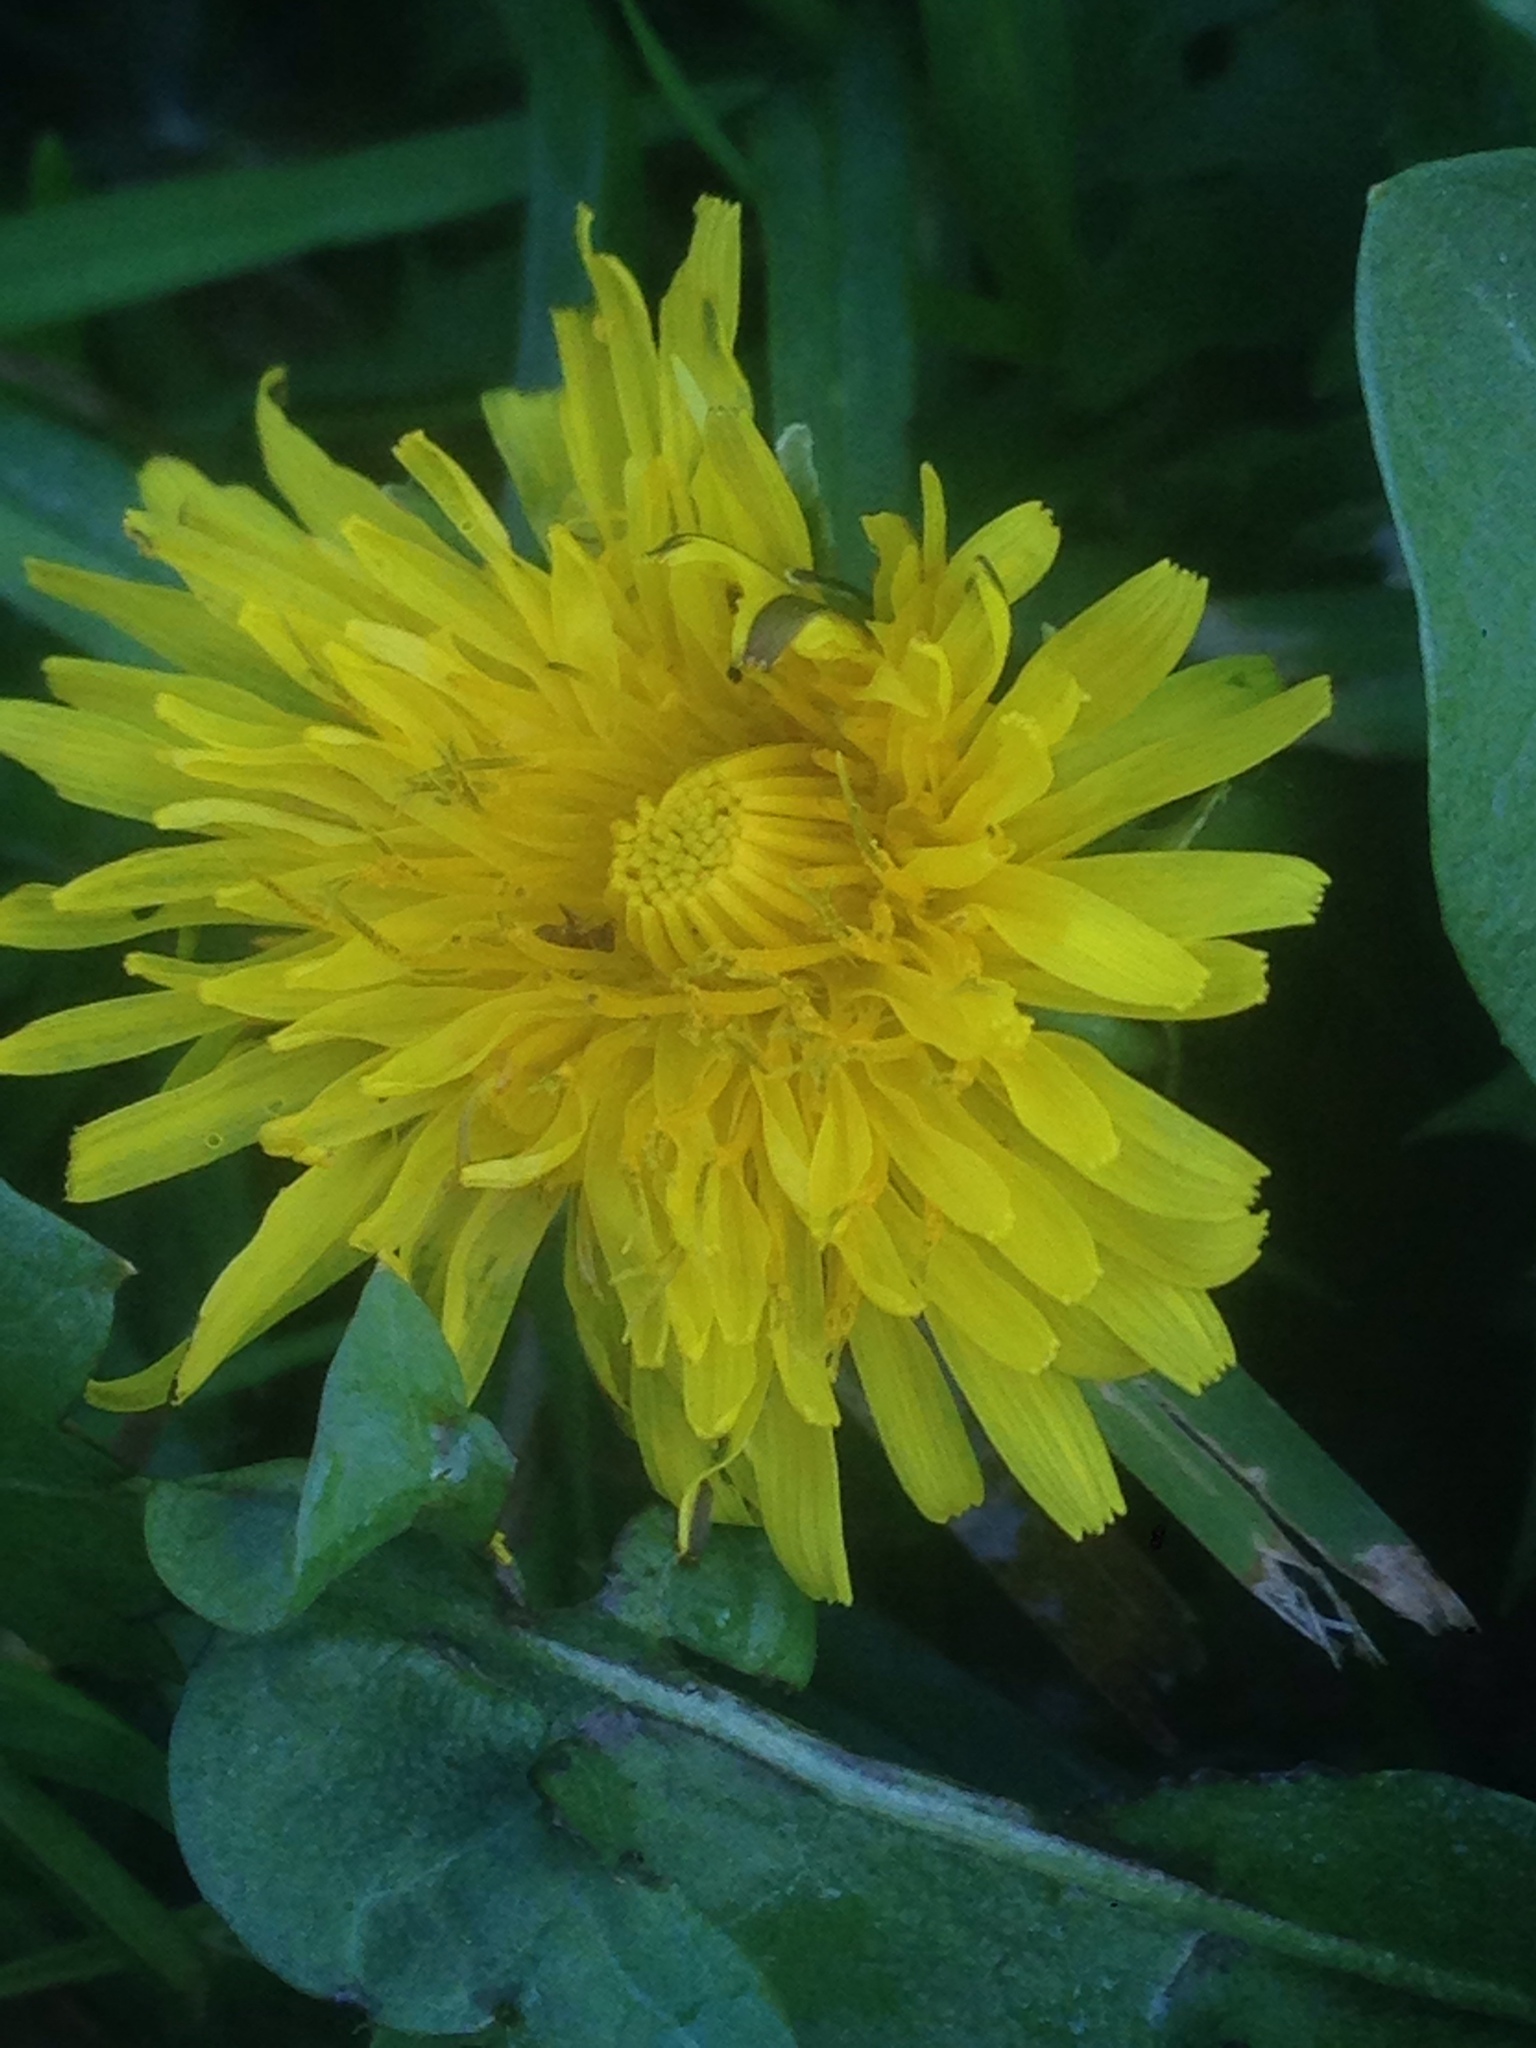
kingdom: Plantae
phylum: Tracheophyta
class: Magnoliopsida
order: Asterales
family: Asteraceae
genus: Taraxacum
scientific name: Taraxacum officinale
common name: Common dandelion
